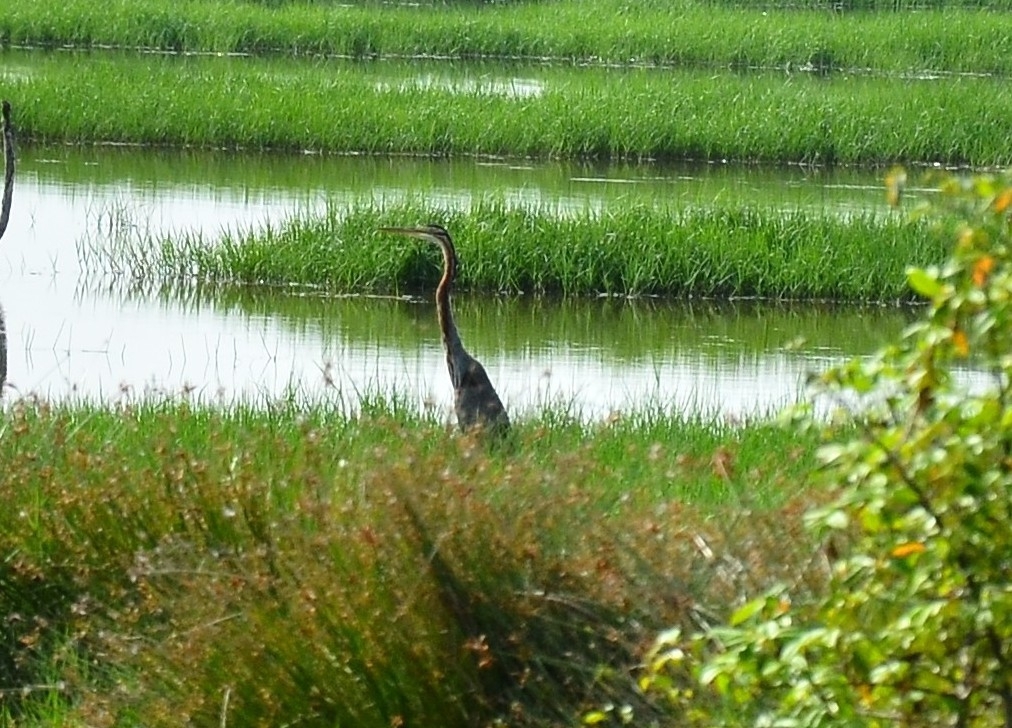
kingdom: Animalia
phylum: Chordata
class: Aves
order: Pelecaniformes
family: Ardeidae
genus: Ardea
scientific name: Ardea purpurea
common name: Purple heron
